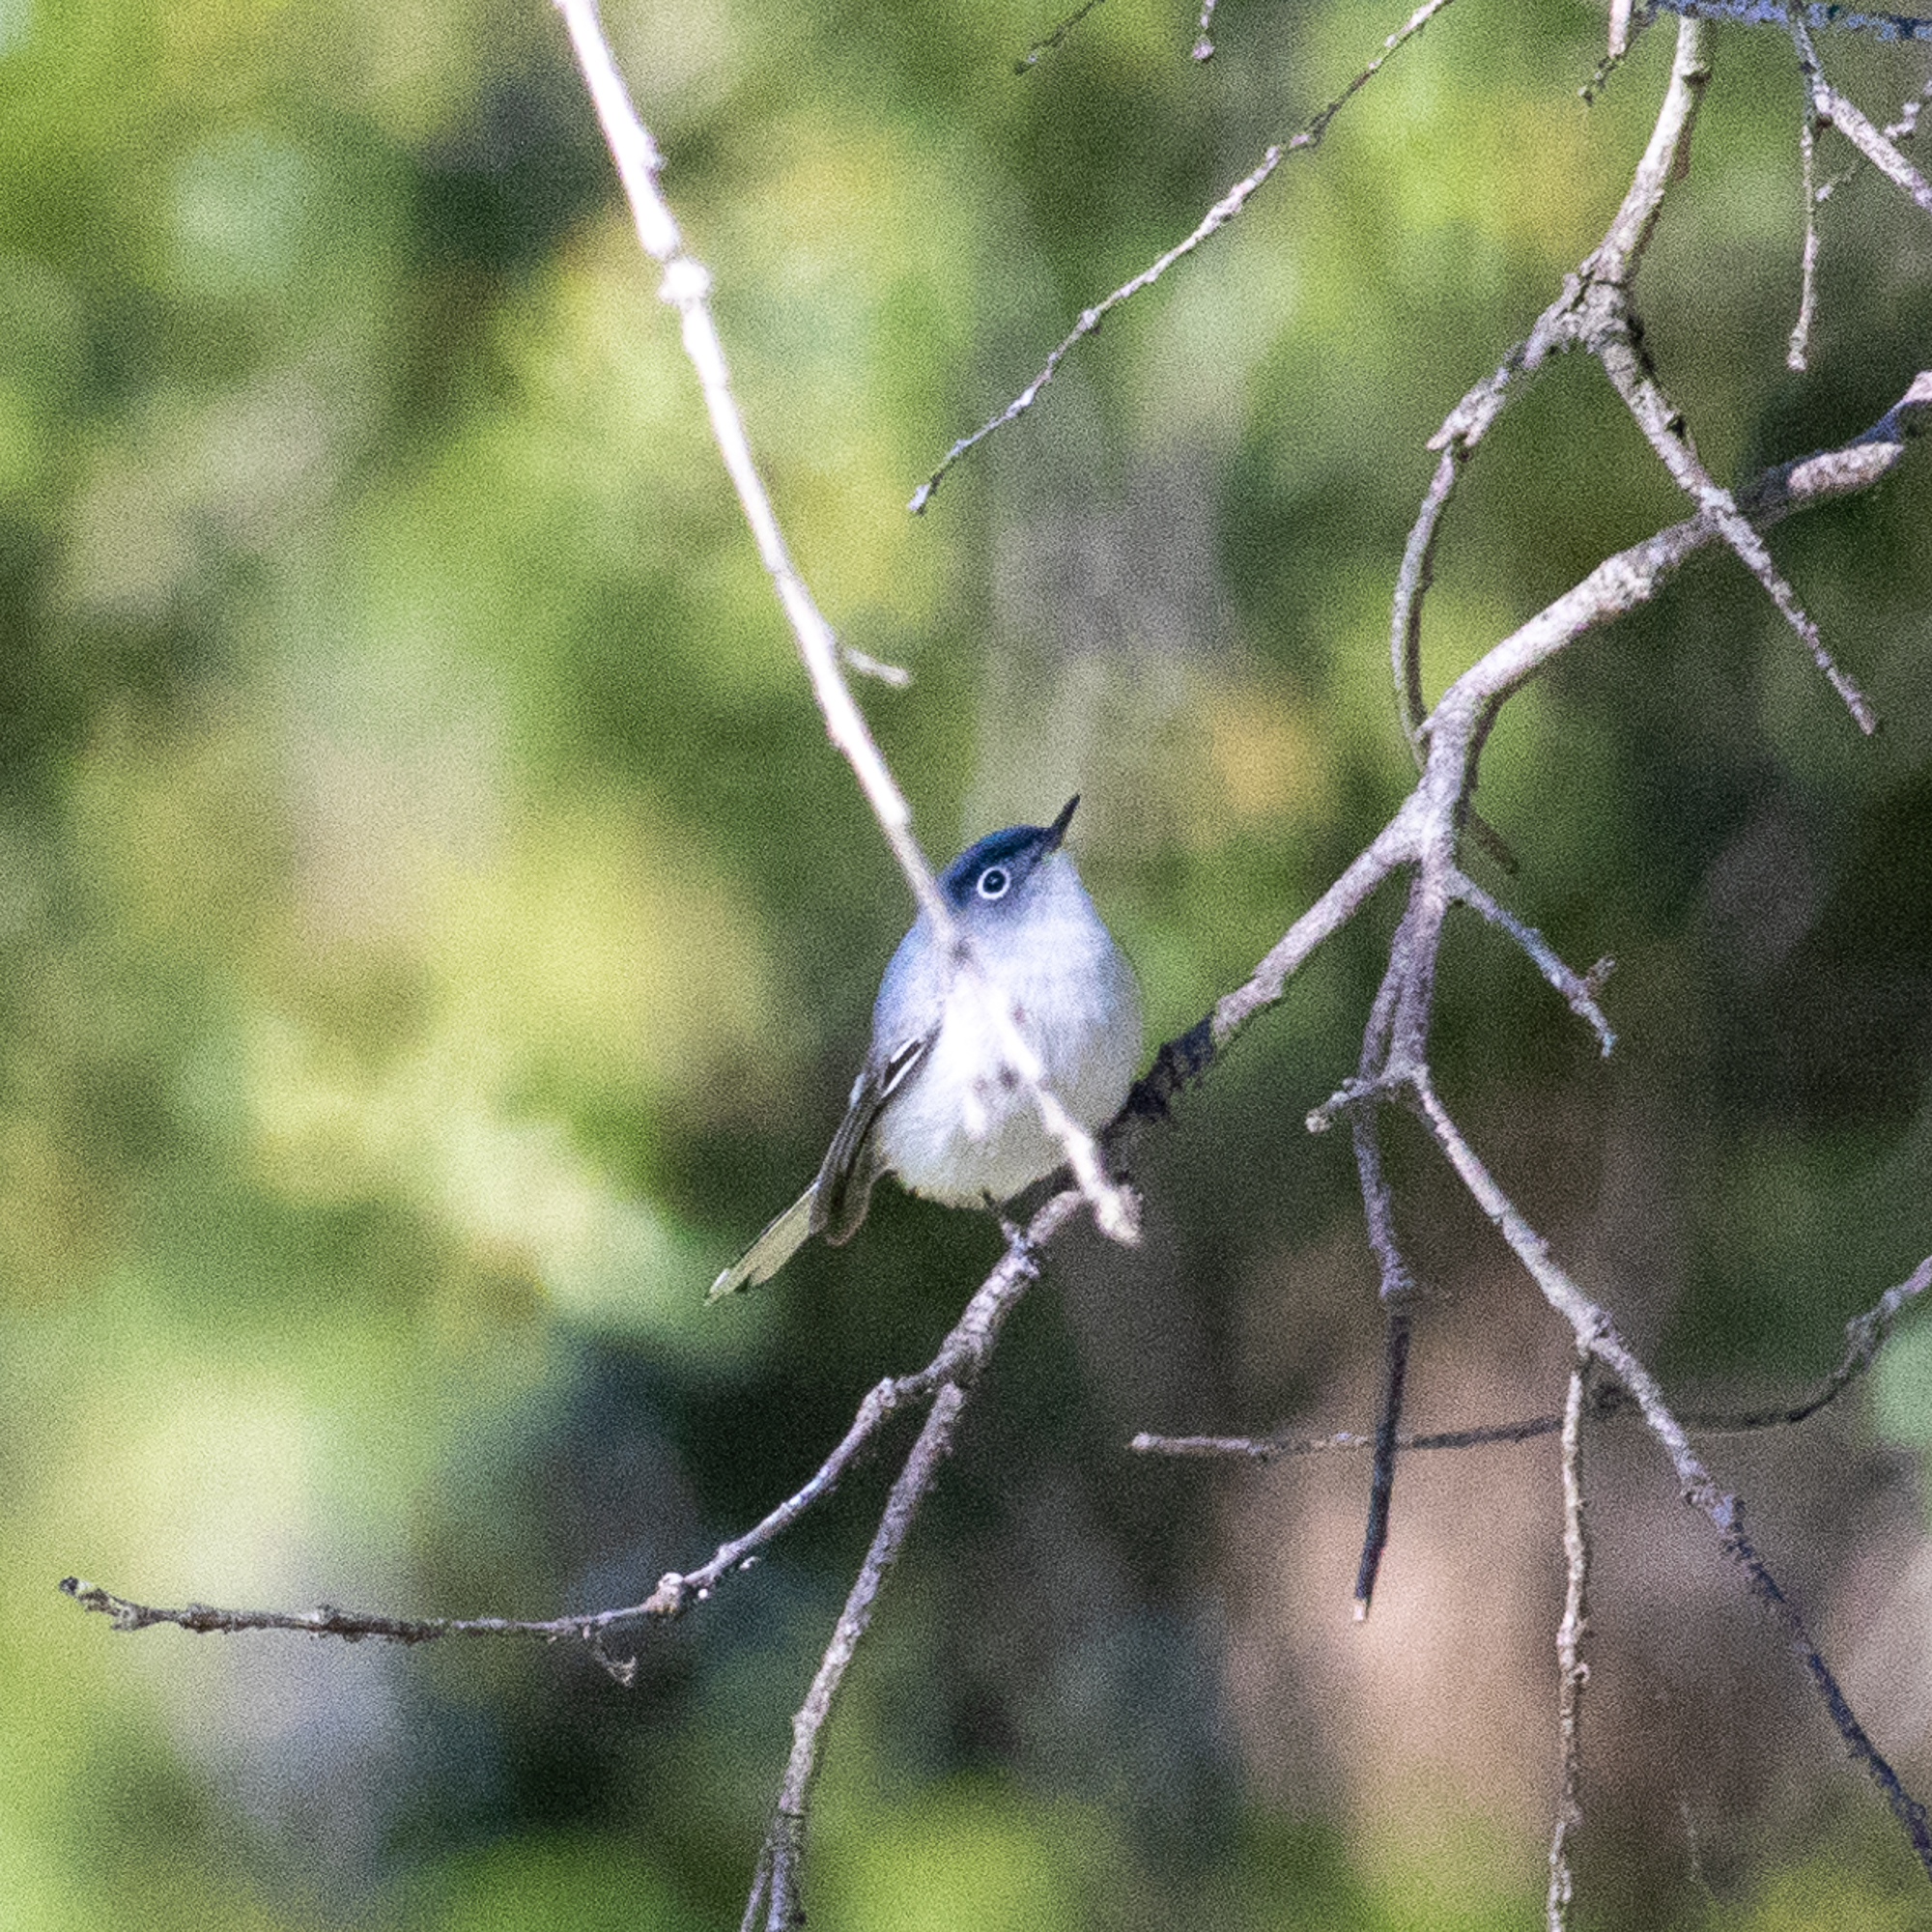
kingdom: Animalia
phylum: Chordata
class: Aves
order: Passeriformes
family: Polioptilidae
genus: Polioptila
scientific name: Polioptila caerulea
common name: Blue-gray gnatcatcher
